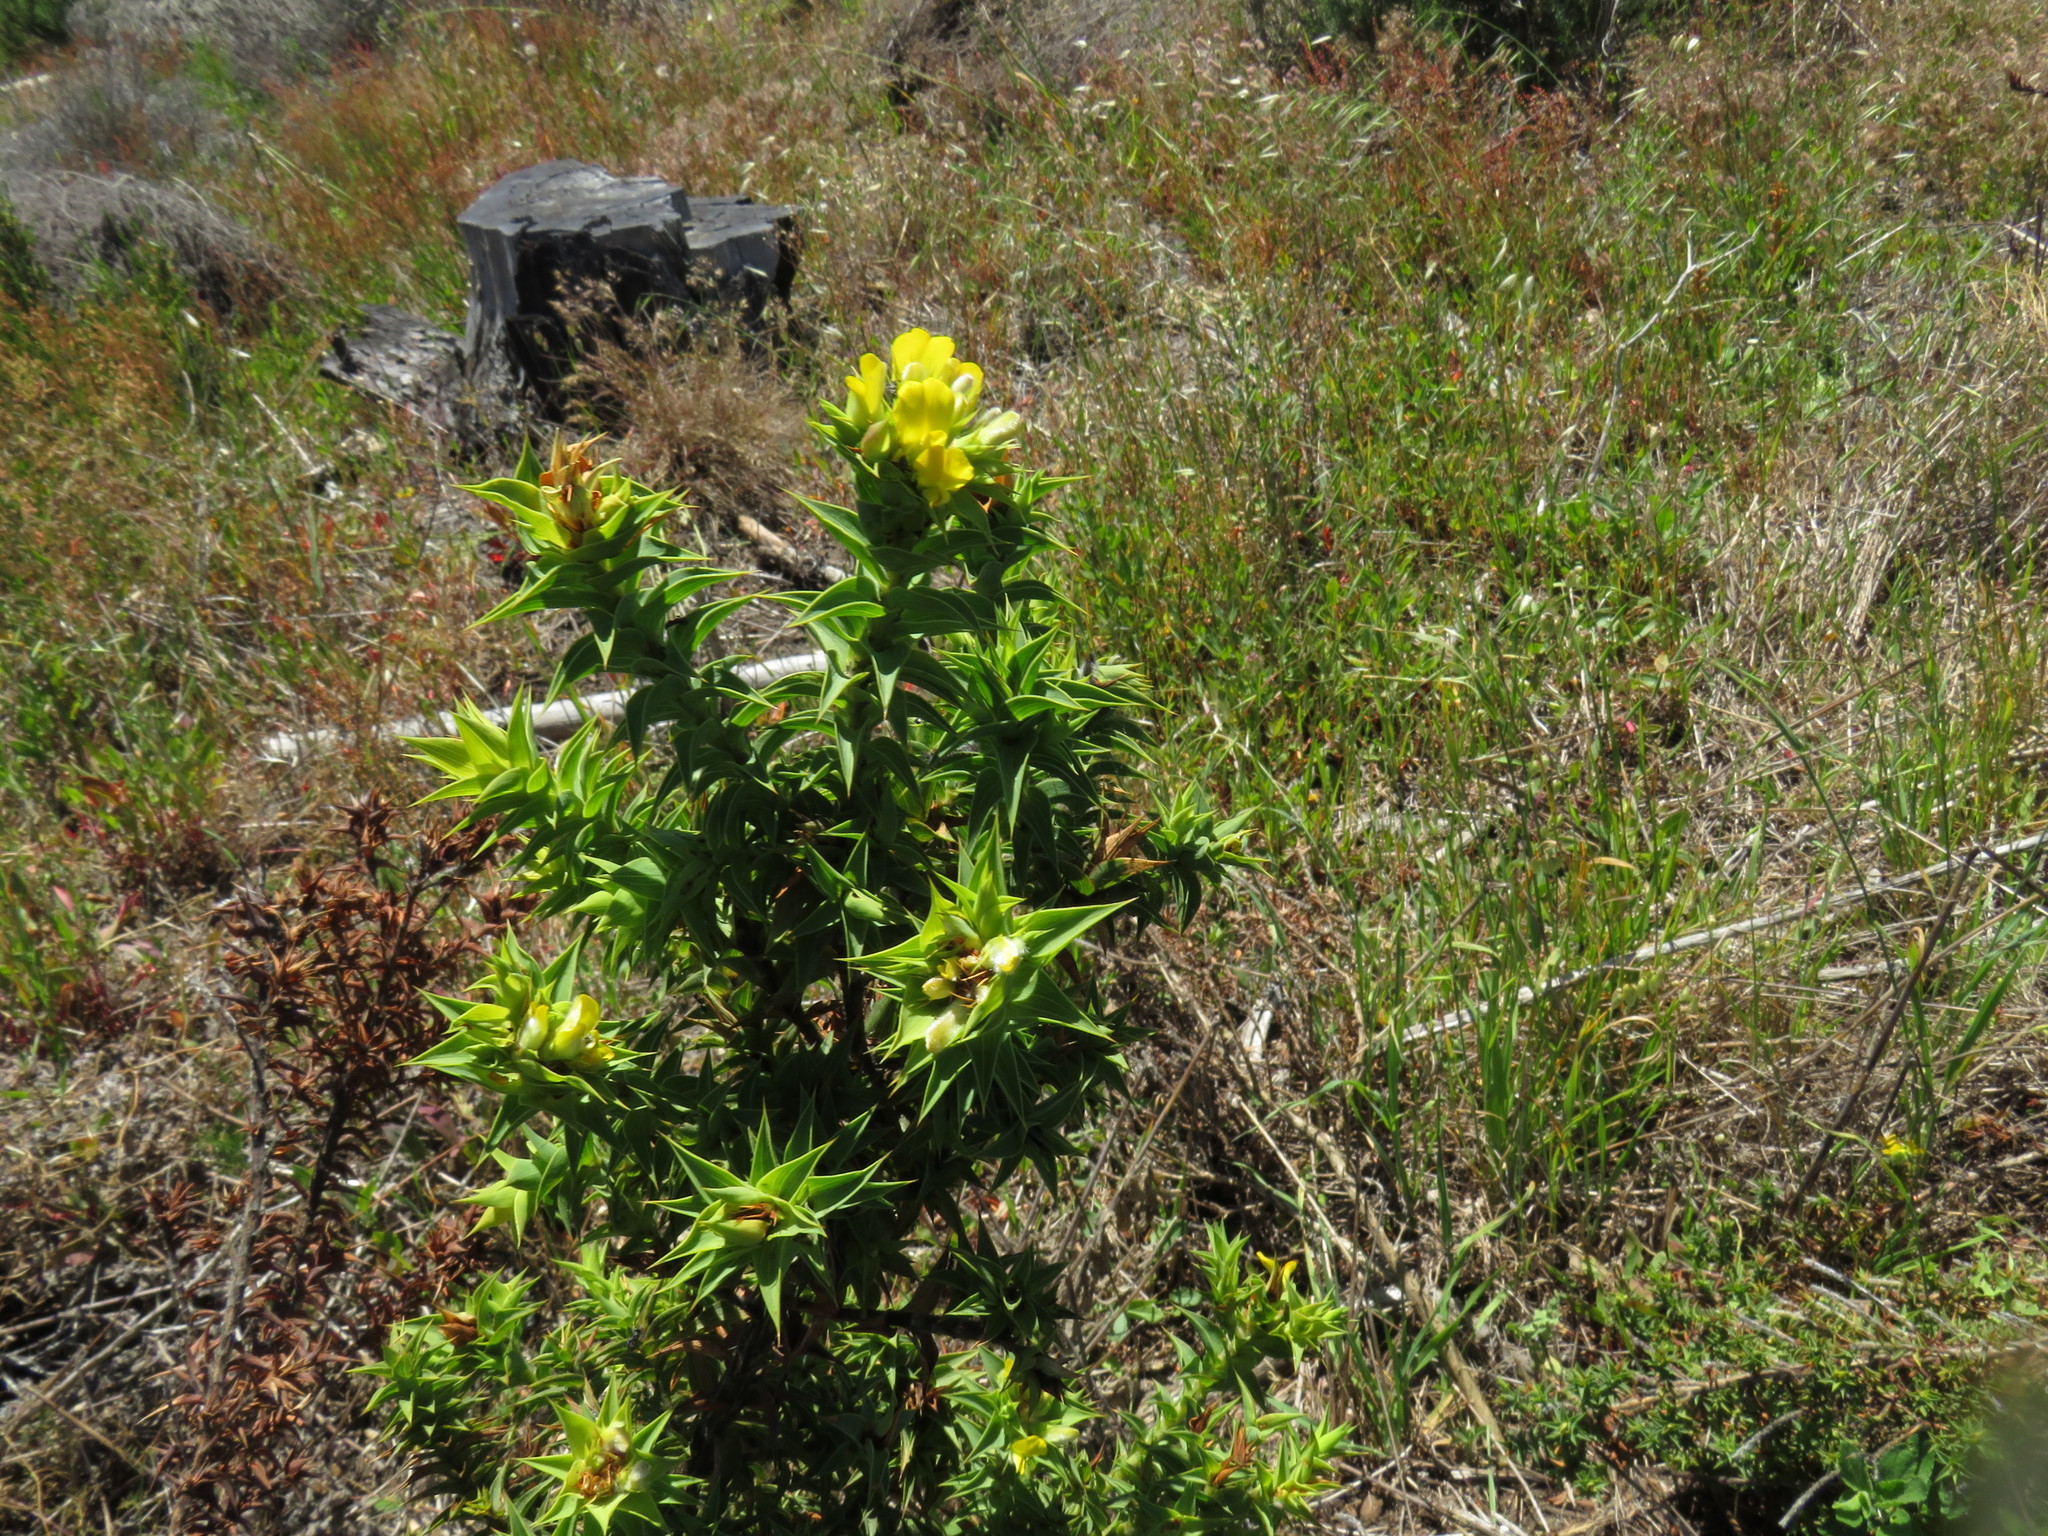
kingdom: Plantae
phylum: Tracheophyta
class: Magnoliopsida
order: Fabales
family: Fabaceae
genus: Aspalathus
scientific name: Aspalathus cordata
